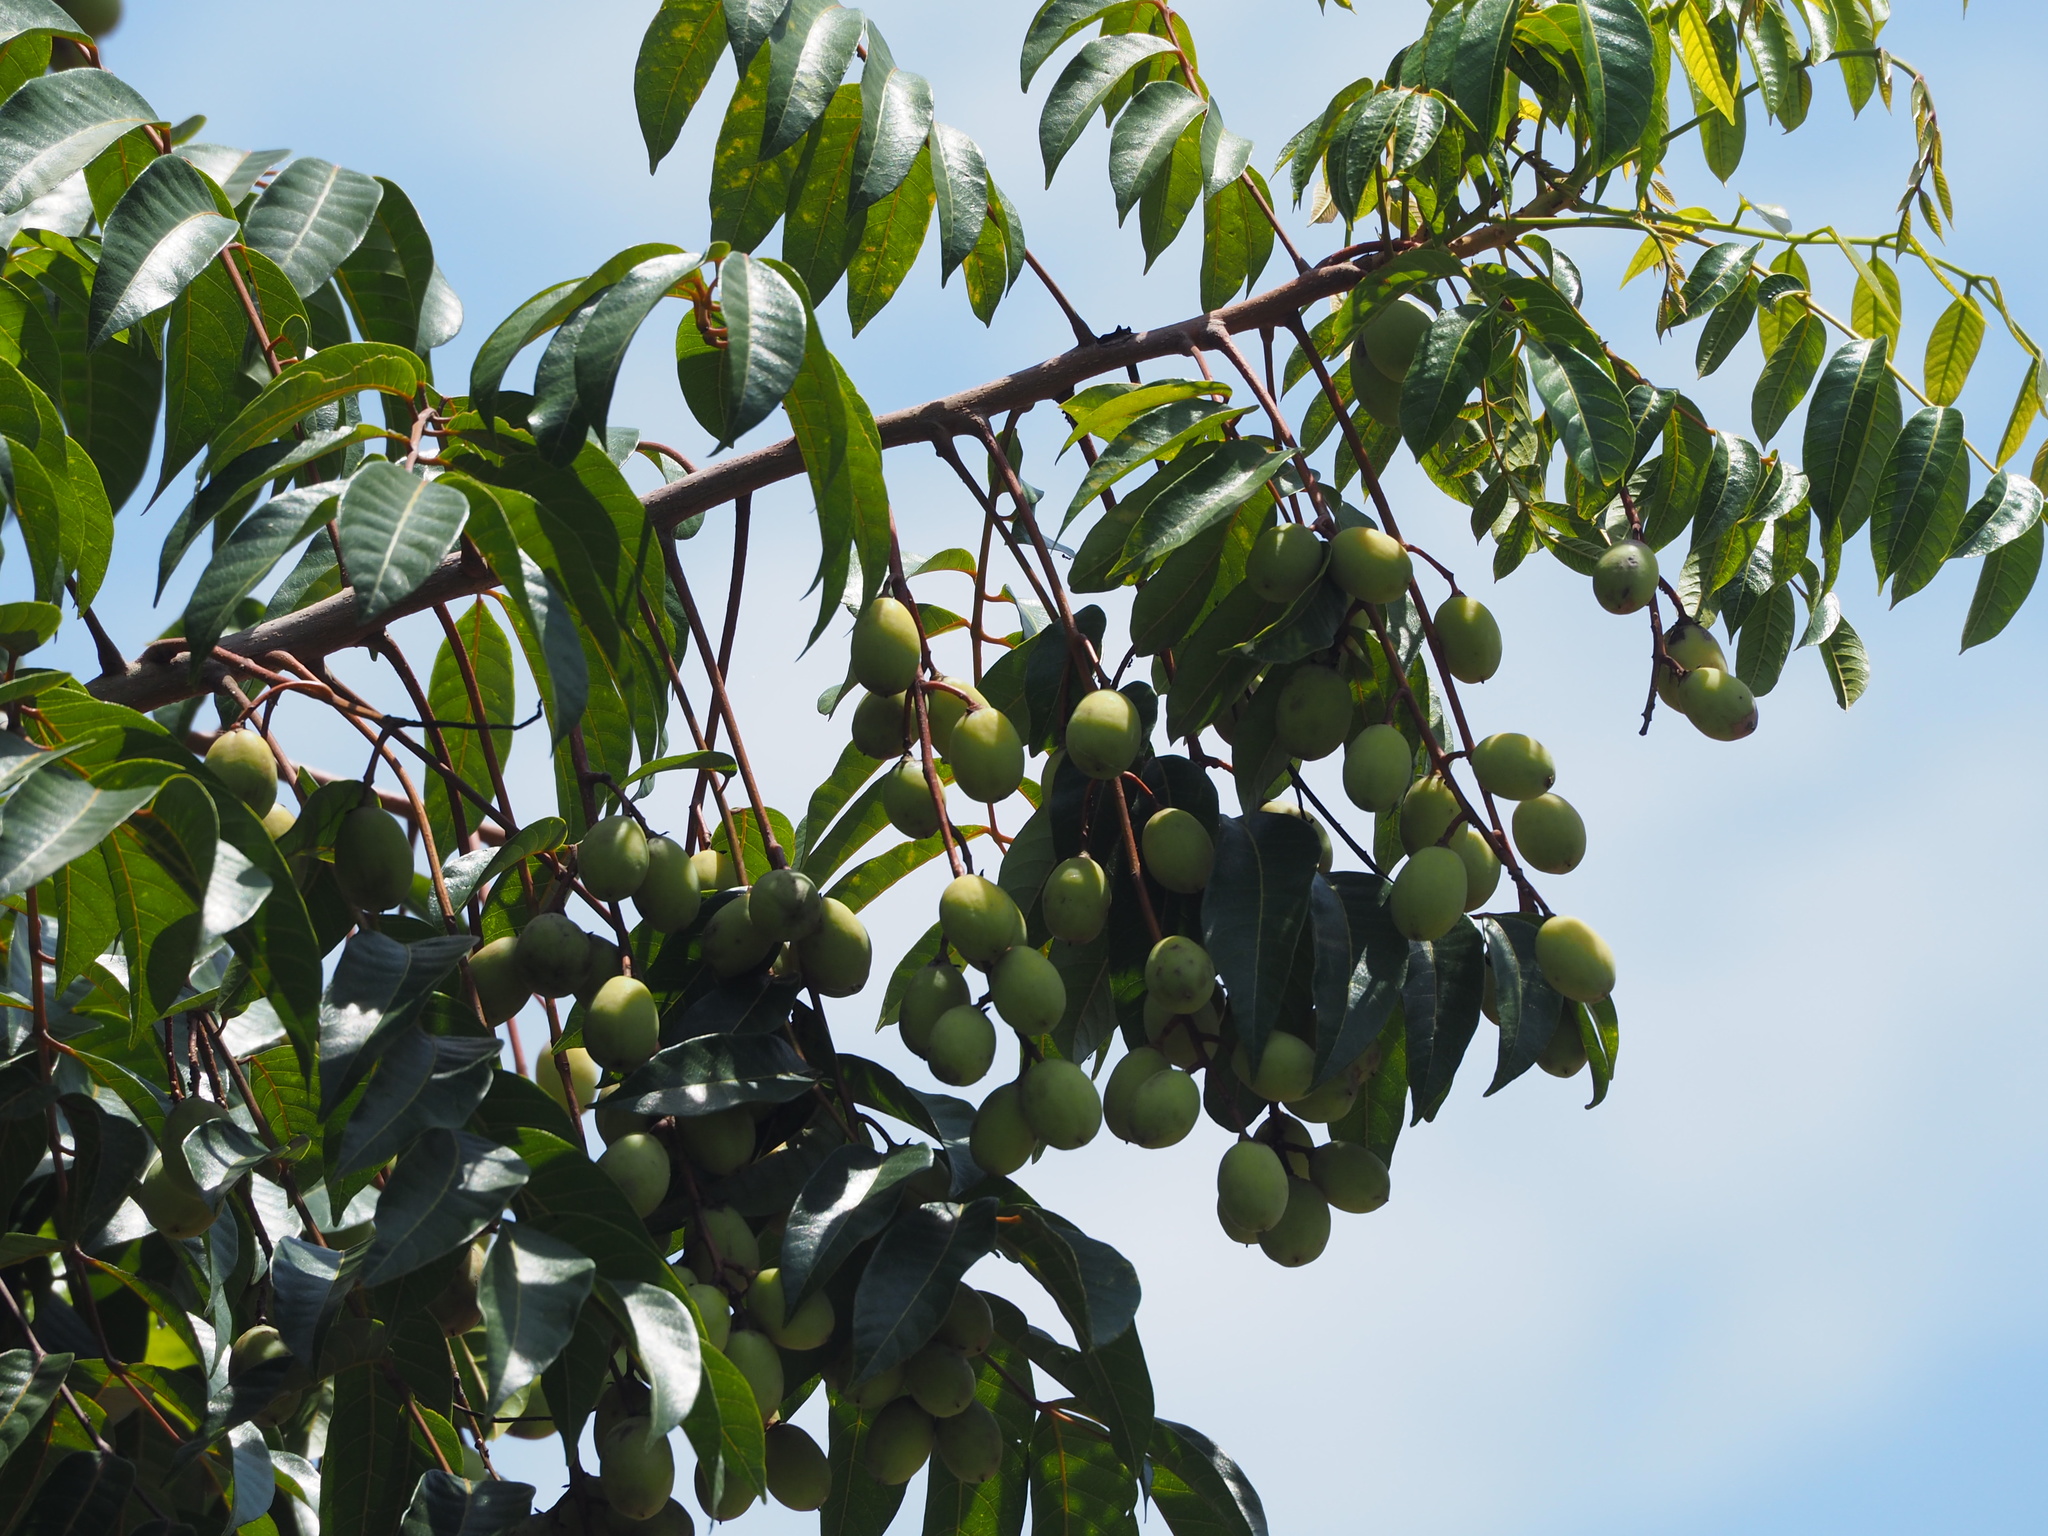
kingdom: Plantae
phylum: Tracheophyta
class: Magnoliopsida
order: Sapindales
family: Burseraceae
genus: Canarium
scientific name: Canarium subulatum
